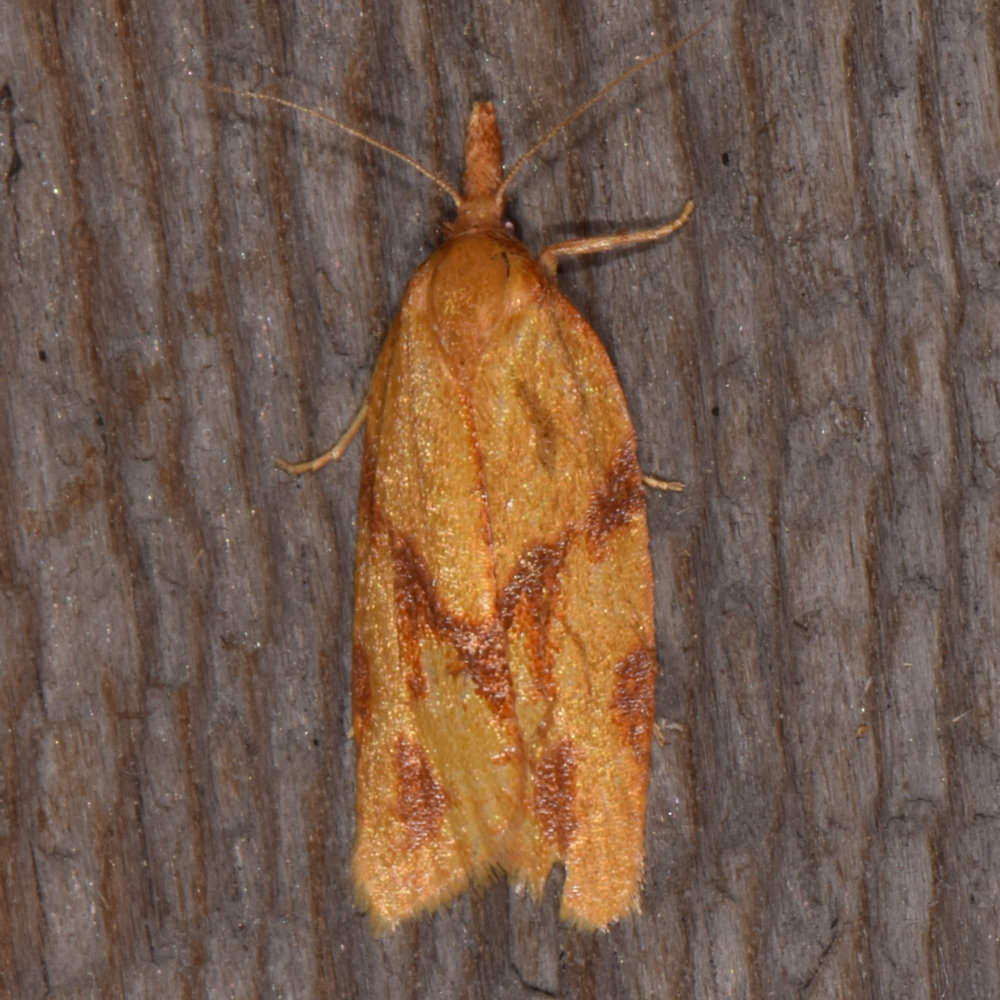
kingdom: Animalia
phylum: Arthropoda
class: Insecta
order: Lepidoptera
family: Tortricidae
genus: Sparganothis
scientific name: Sparganothis unifasciana
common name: One-lined sparganothis moth
